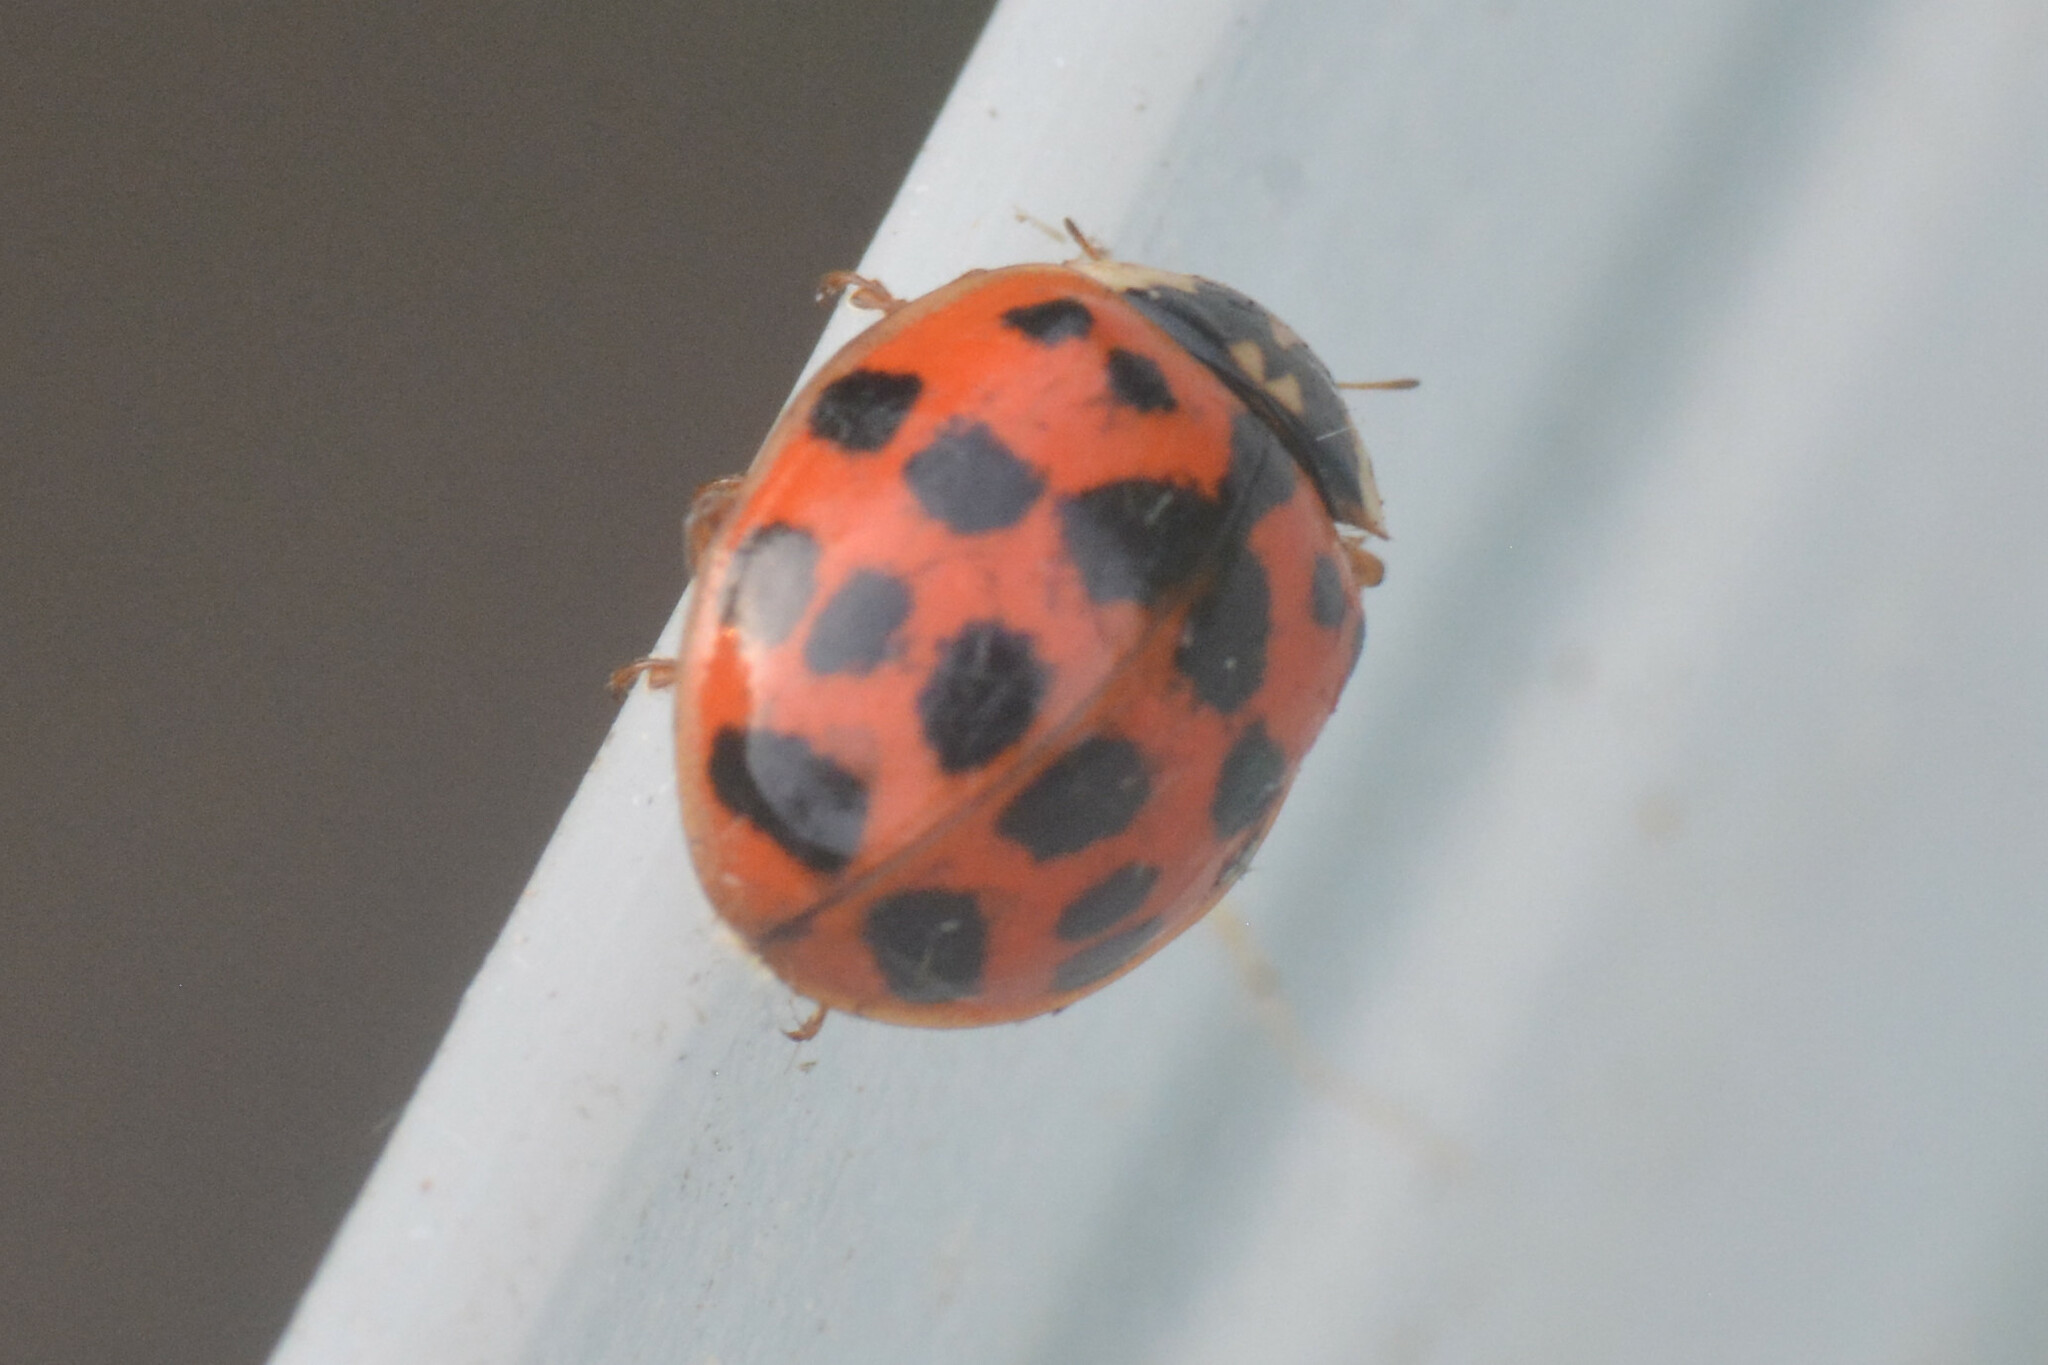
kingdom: Animalia
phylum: Arthropoda
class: Insecta
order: Coleoptera
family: Coccinellidae
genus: Harmonia
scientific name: Harmonia axyridis
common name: Harlequin ladybird
